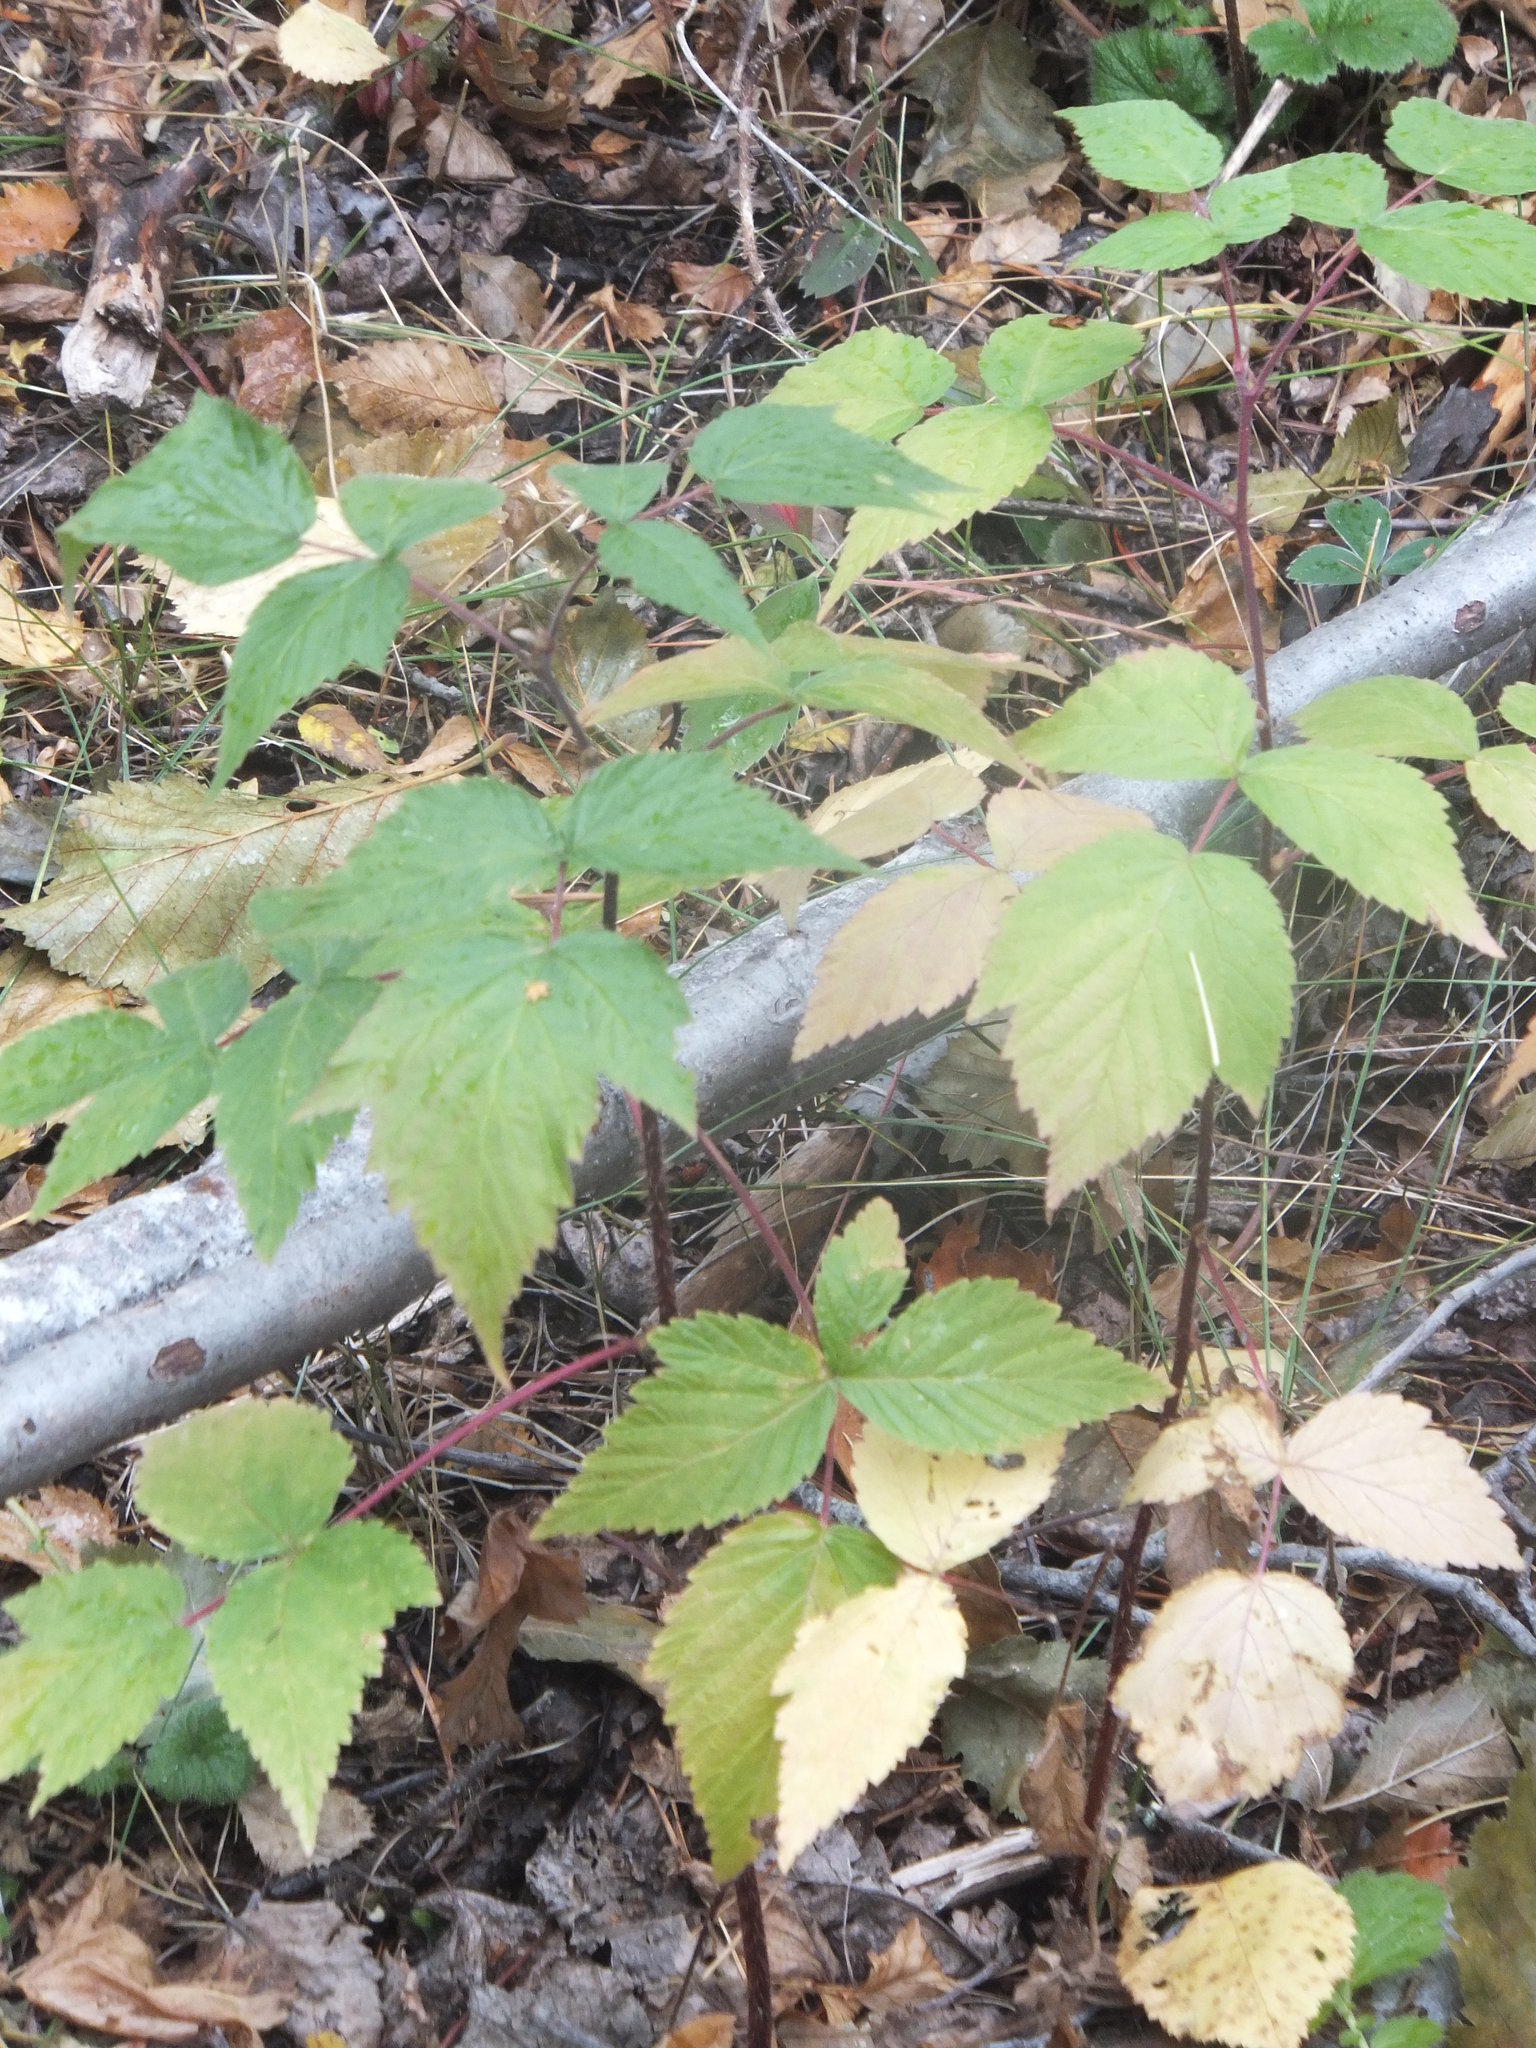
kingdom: Plantae
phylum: Tracheophyta
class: Magnoliopsida
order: Rosales
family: Rosaceae
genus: Rubus
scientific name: Rubus idaeus
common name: Raspberry
